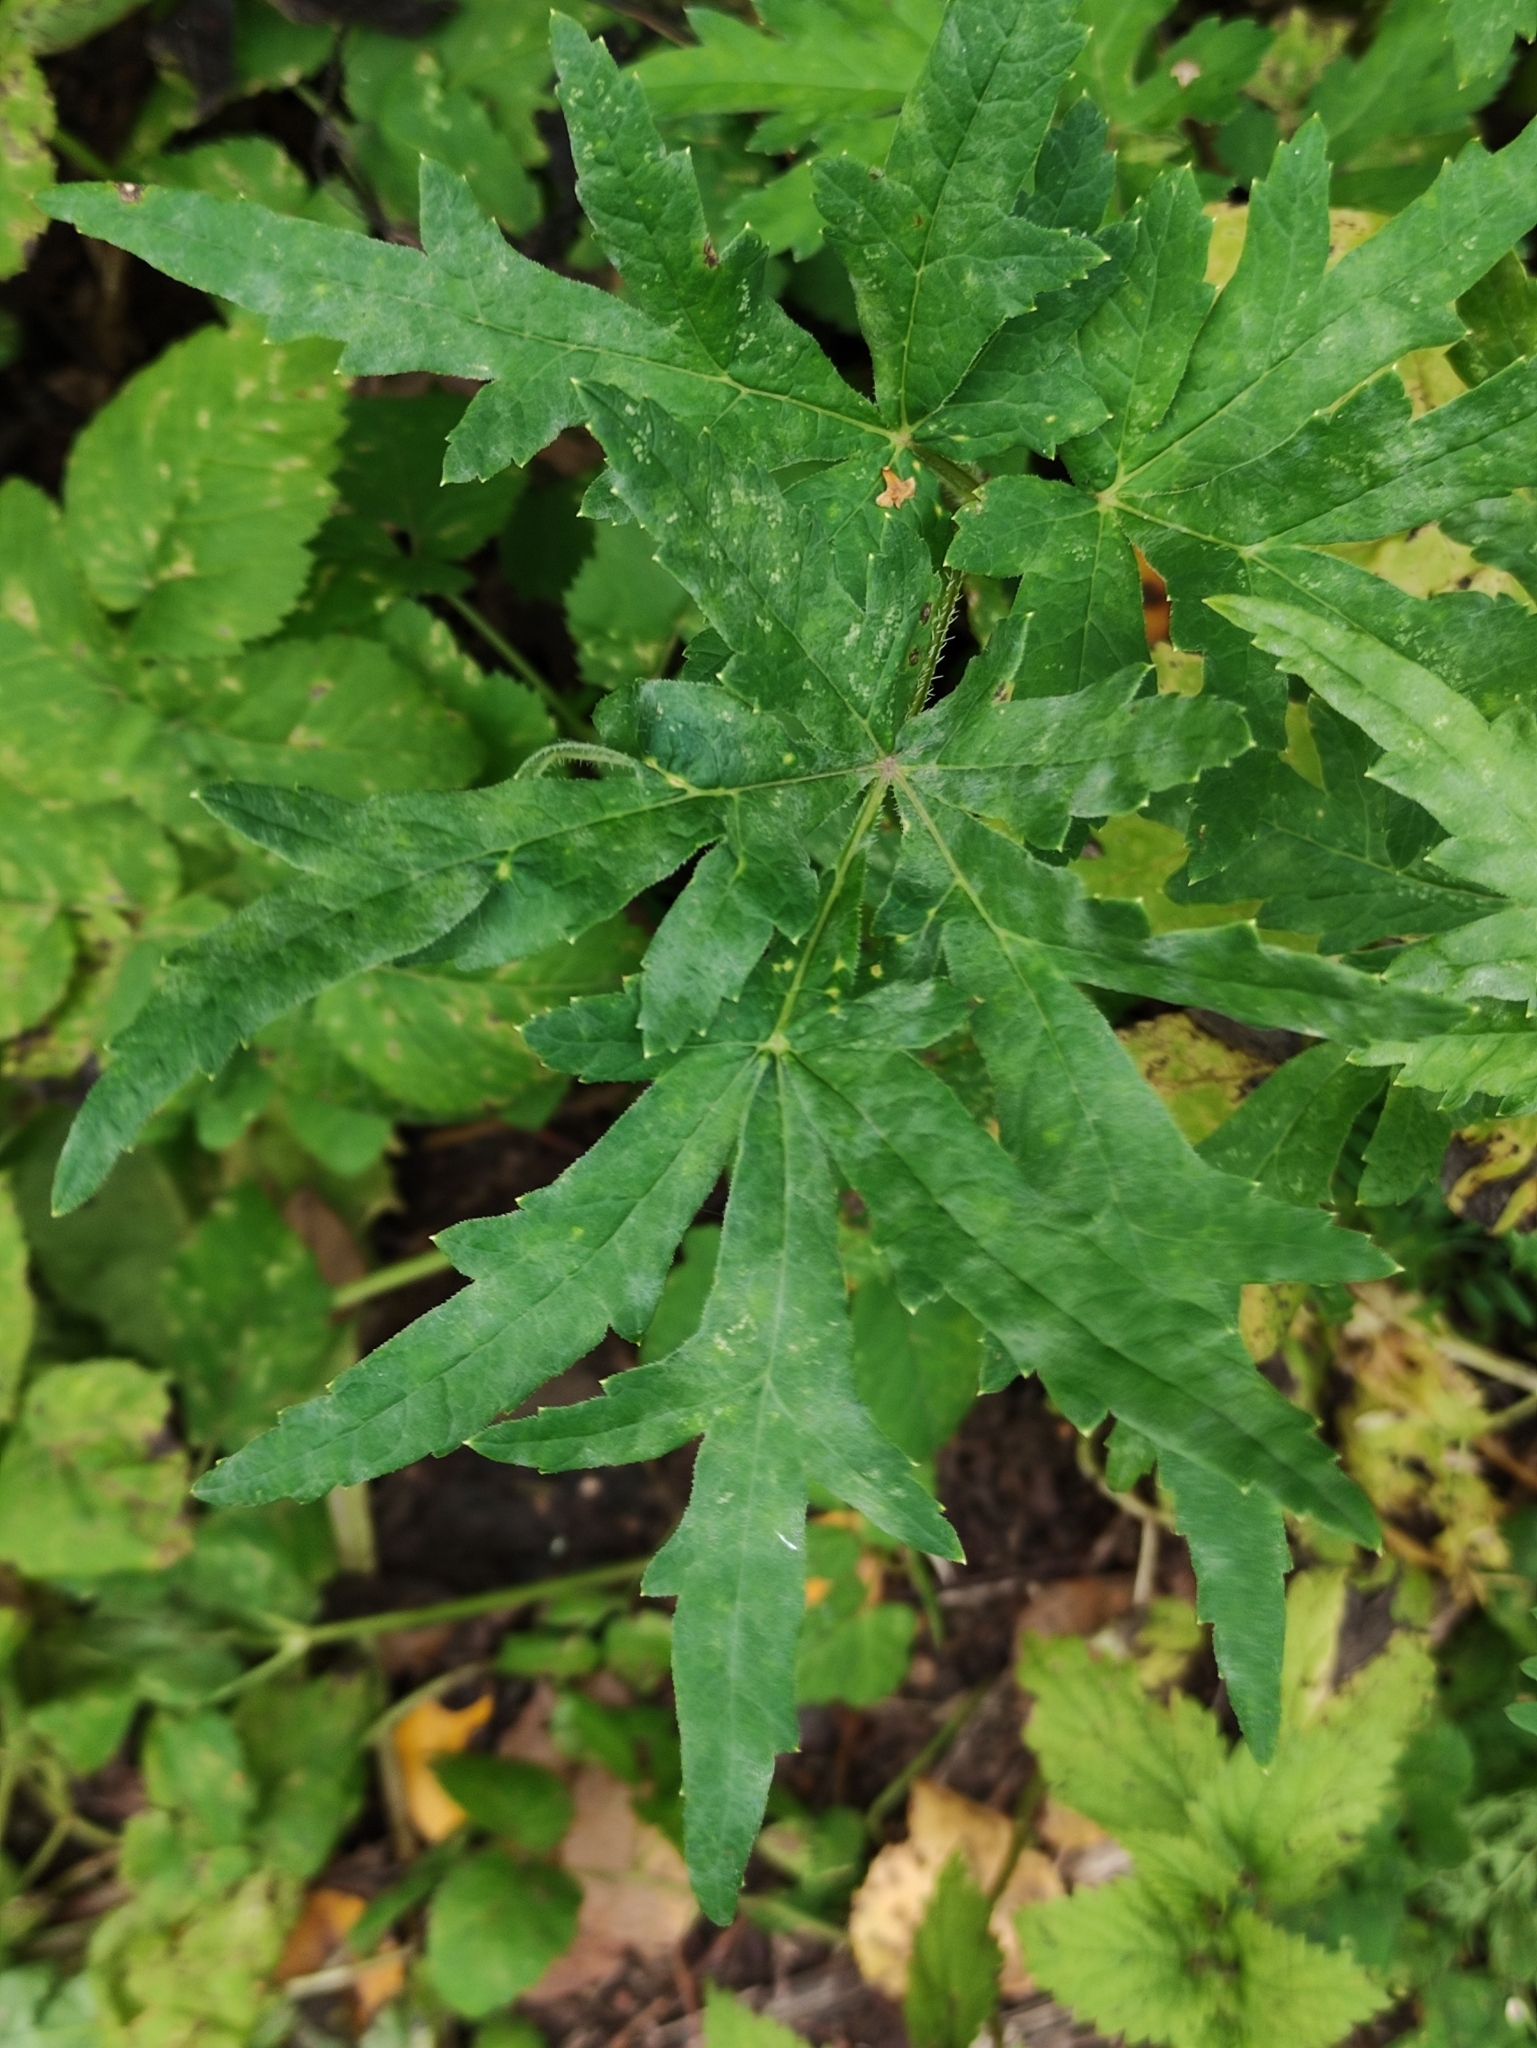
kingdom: Plantae
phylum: Tracheophyta
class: Magnoliopsida
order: Apiales
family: Apiaceae
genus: Heracleum
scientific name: Heracleum sphondylium
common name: Hogweed
